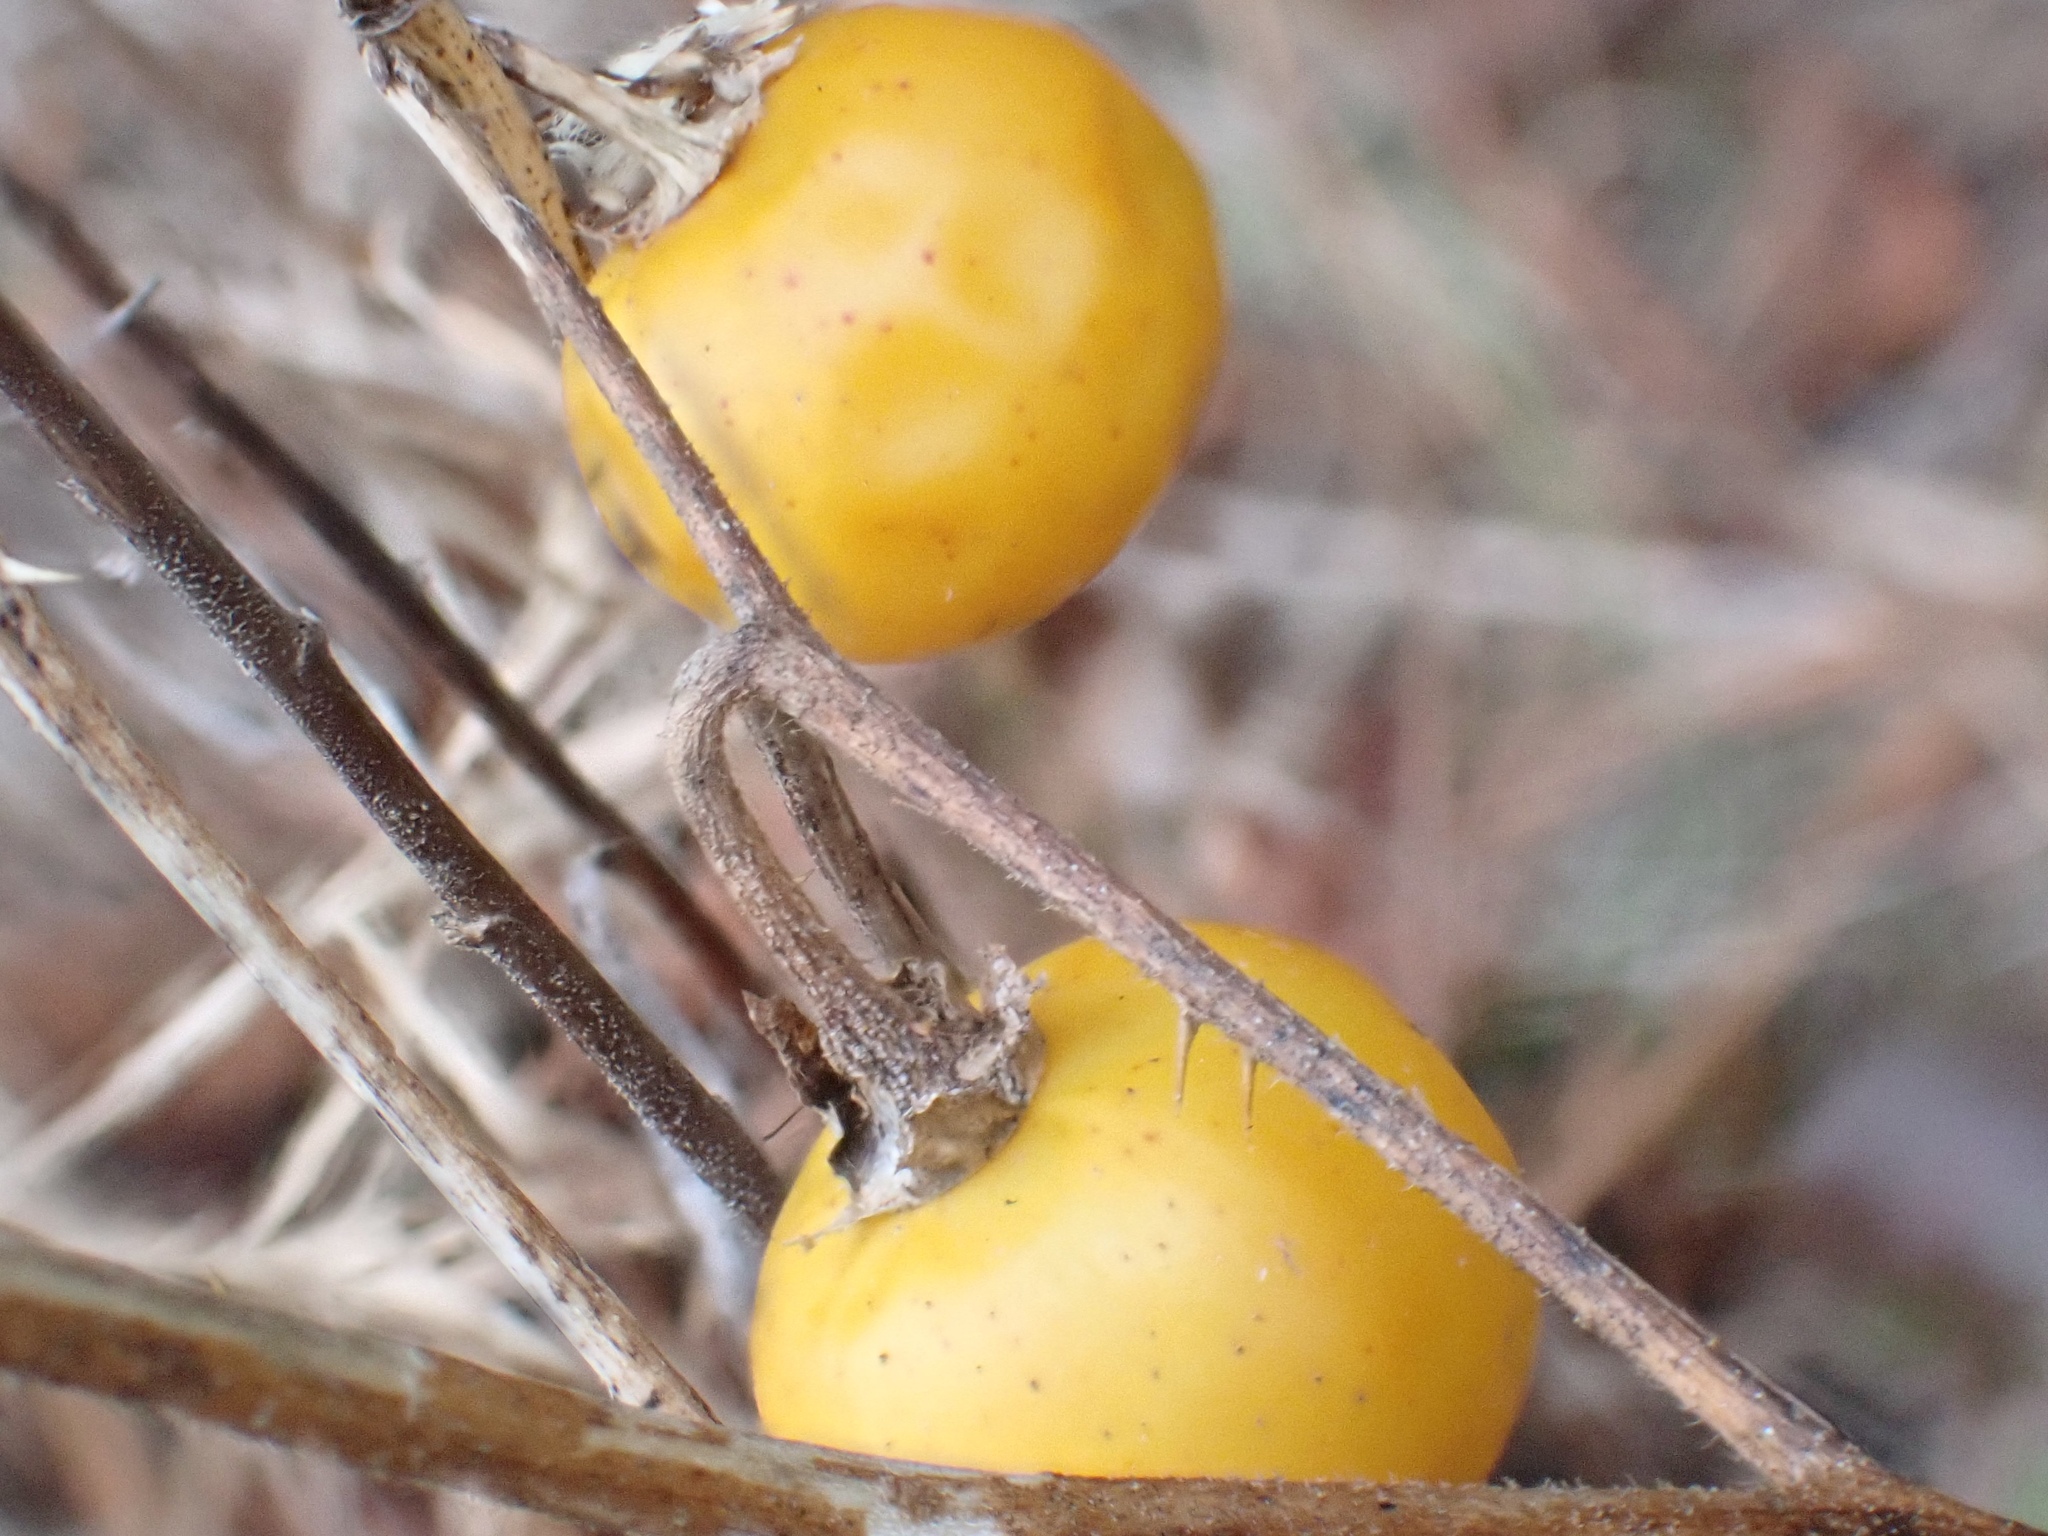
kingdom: Plantae
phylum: Tracheophyta
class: Magnoliopsida
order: Solanales
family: Solanaceae
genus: Solanum
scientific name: Solanum carolinense
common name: Horse-nettle
